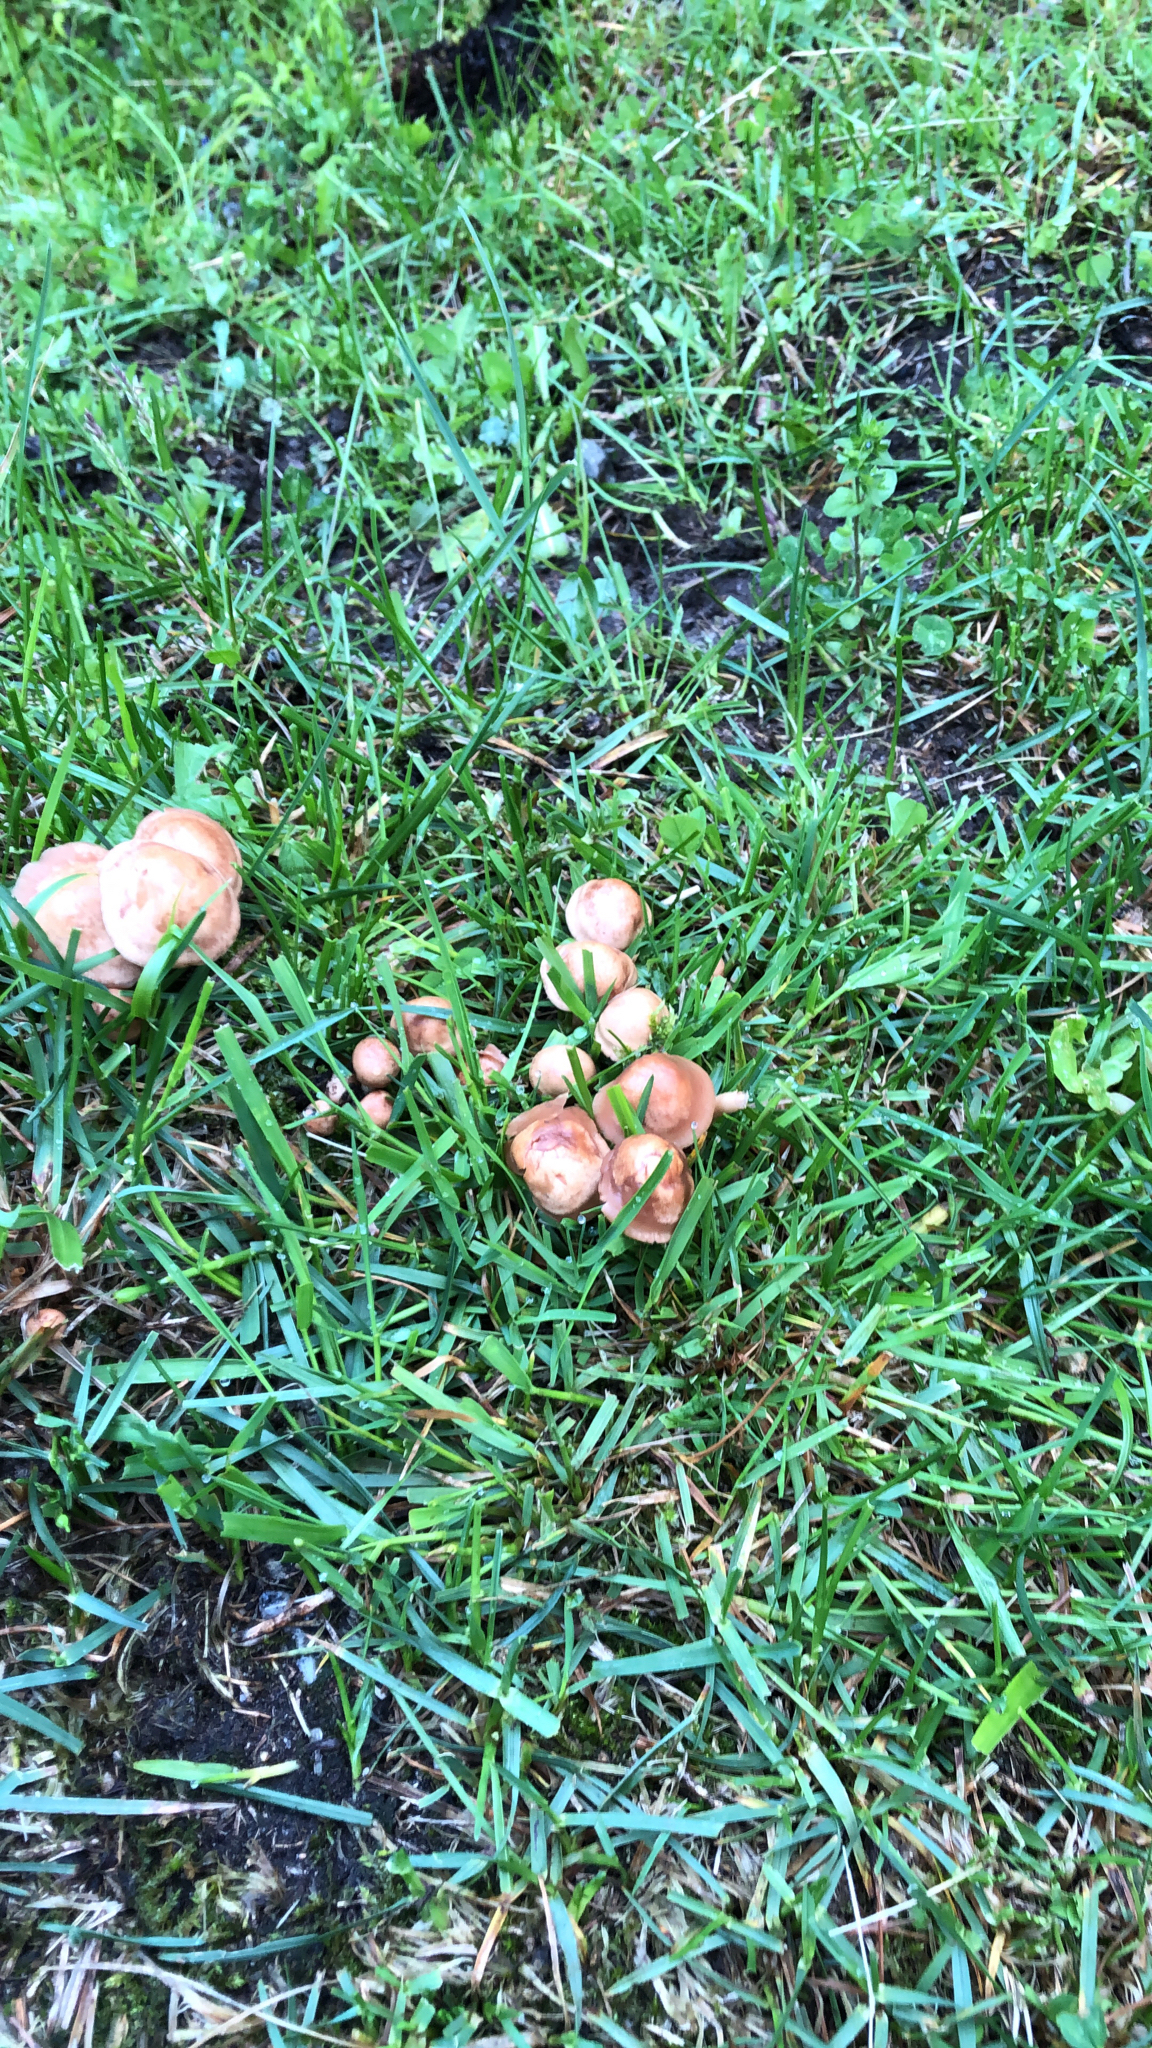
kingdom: Fungi
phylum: Basidiomycota
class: Agaricomycetes
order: Agaricales
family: Marasmiaceae
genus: Marasmius
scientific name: Marasmius oreades
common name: Fairy ring champignon
